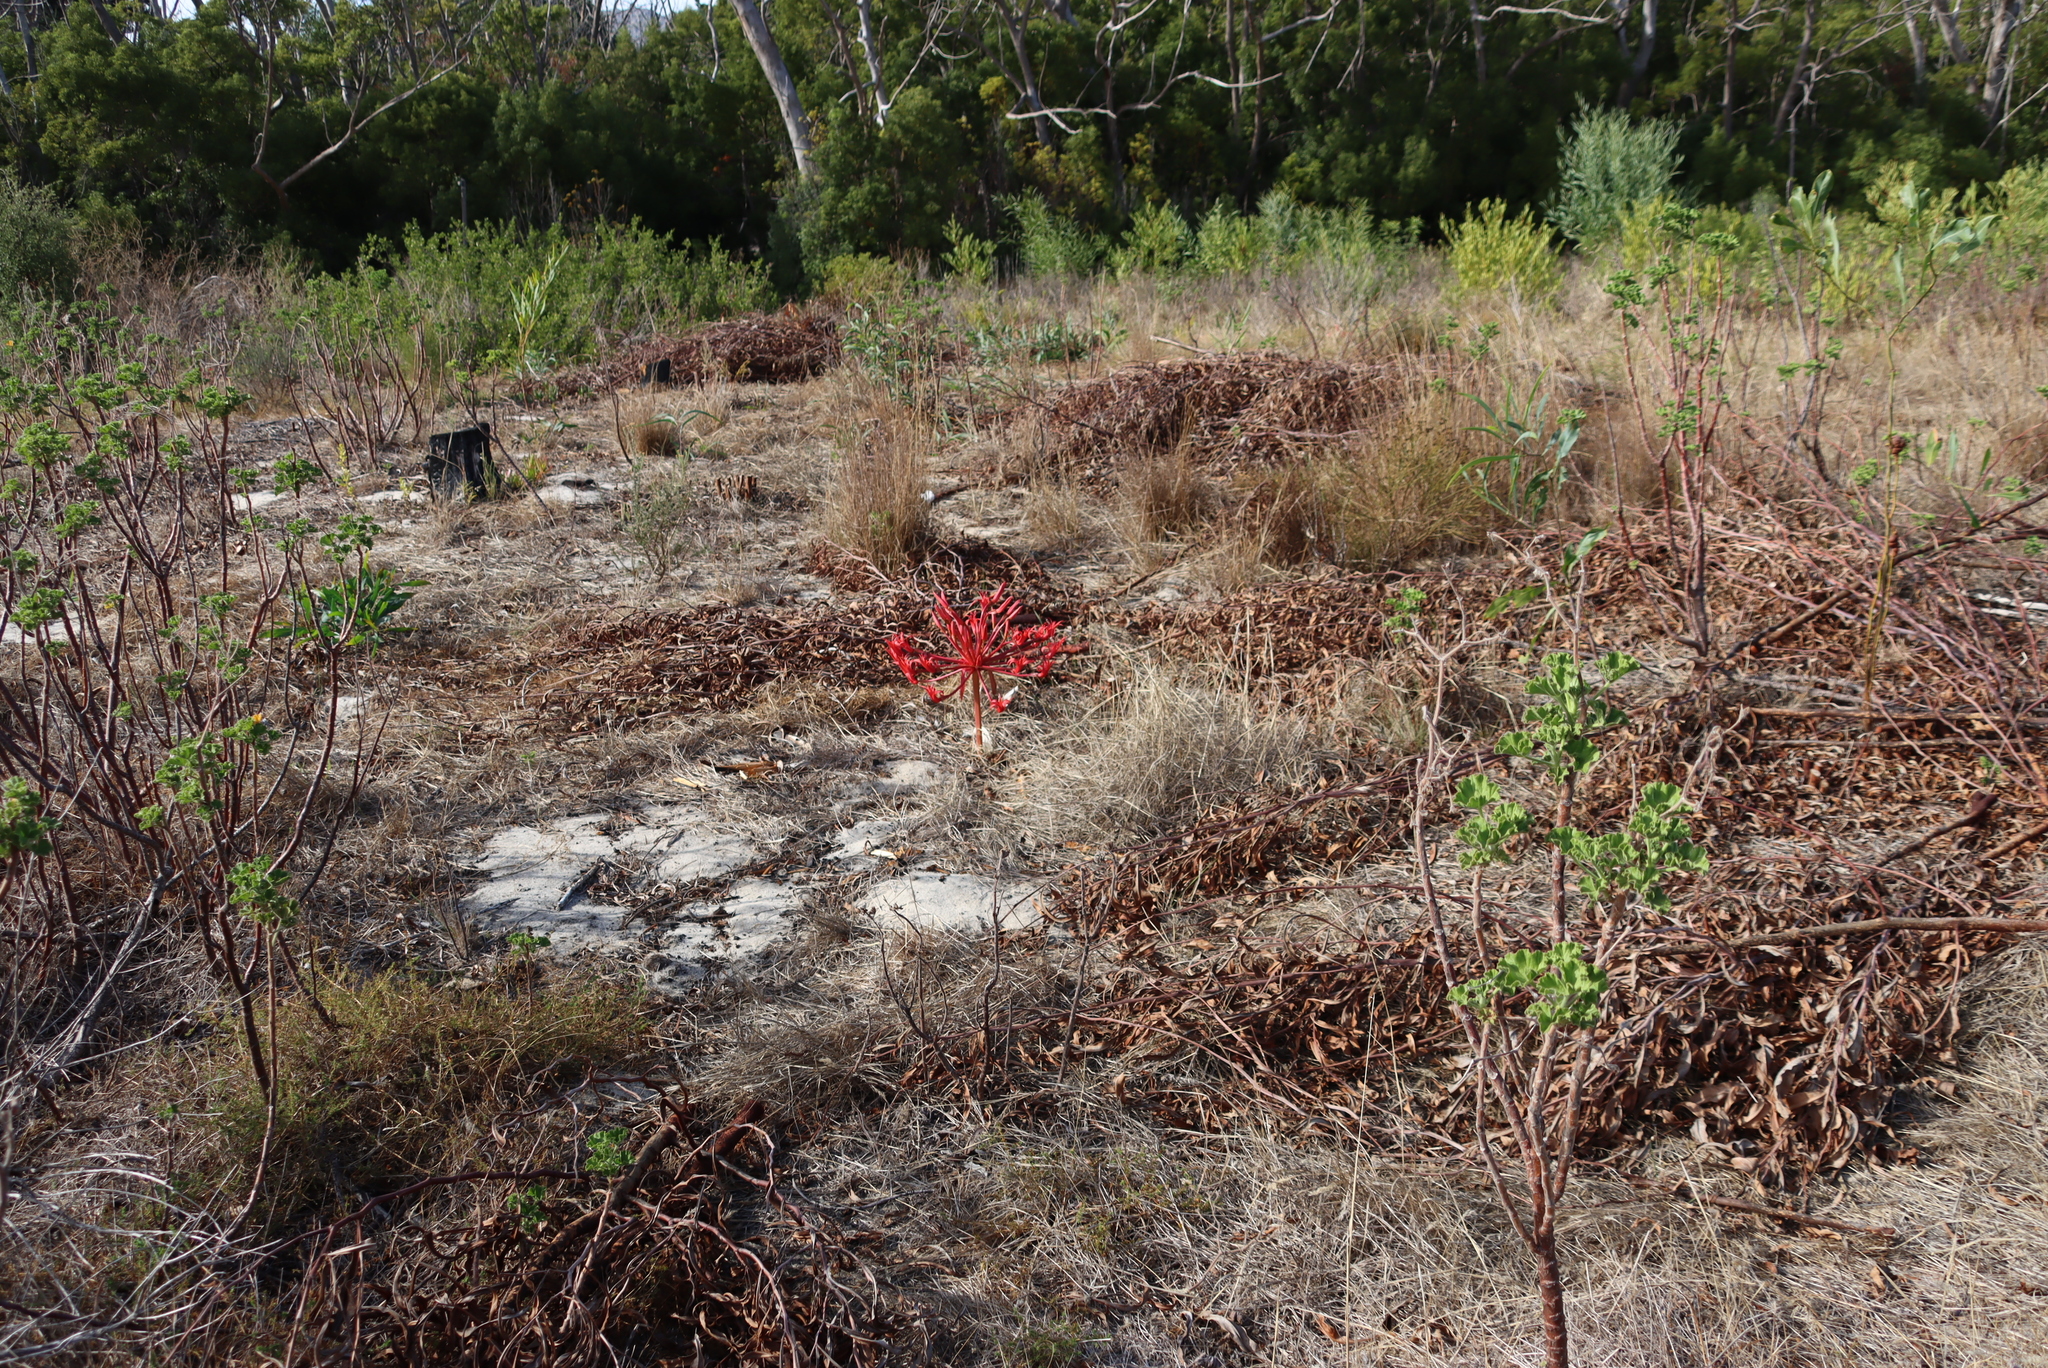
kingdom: Plantae
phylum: Tracheophyta
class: Liliopsida
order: Asparagales
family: Amaryllidaceae
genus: Brunsvigia
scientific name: Brunsvigia orientalis
